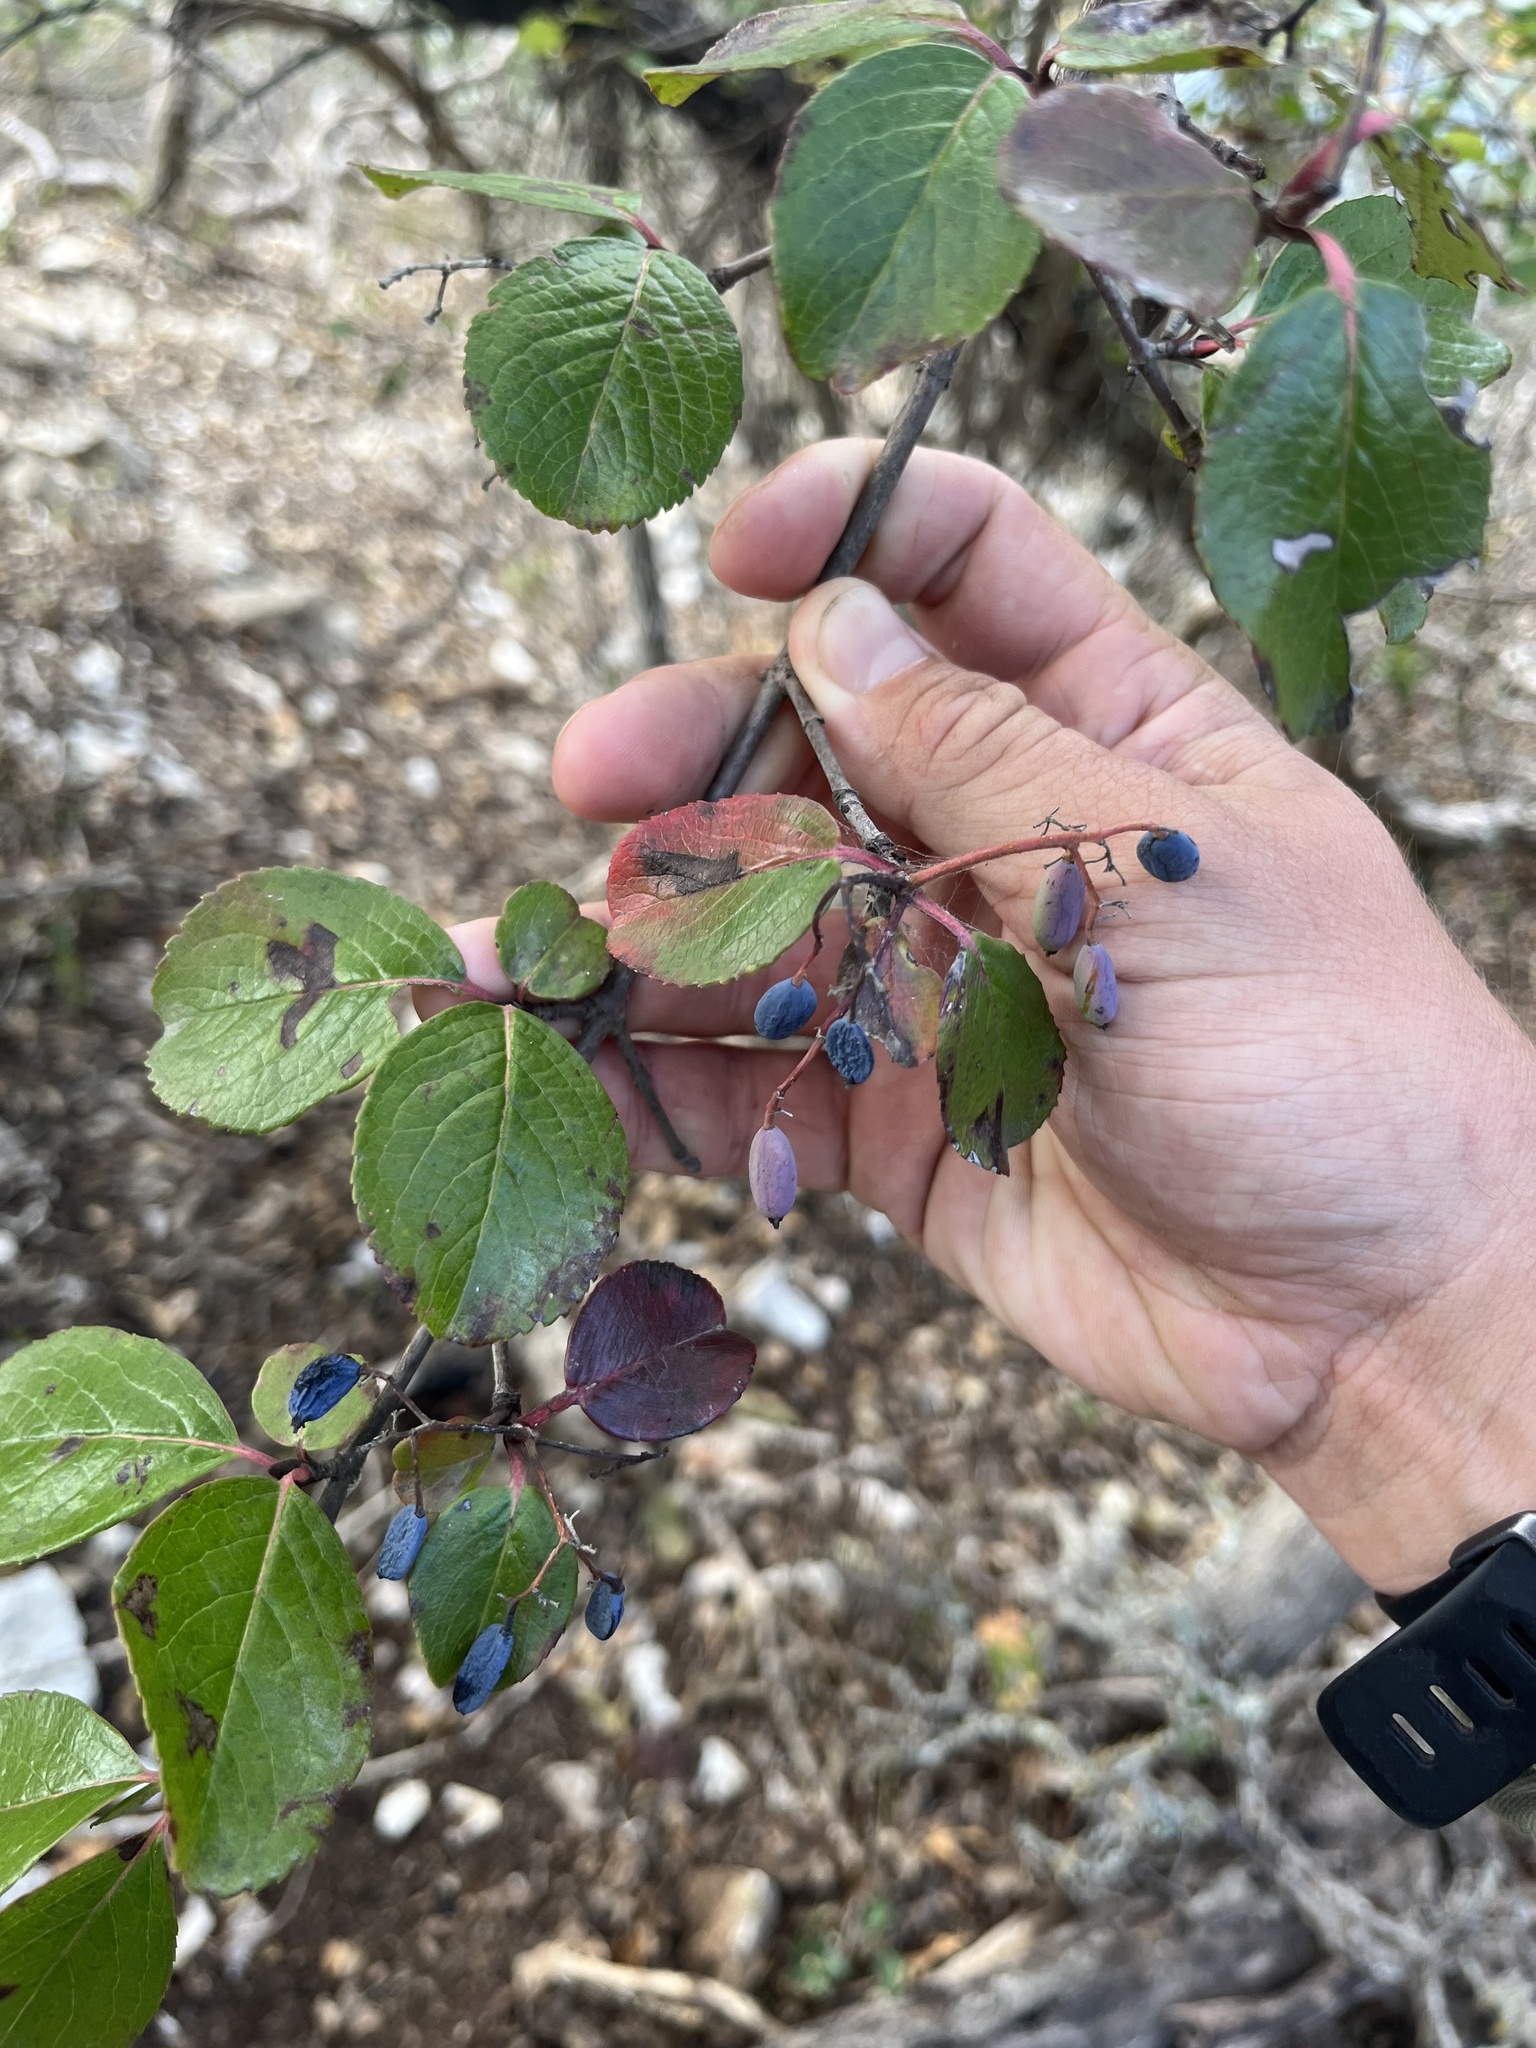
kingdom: Plantae
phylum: Tracheophyta
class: Magnoliopsida
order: Dipsacales
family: Viburnaceae
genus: Viburnum
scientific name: Viburnum rufidulum
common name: Blue haw
